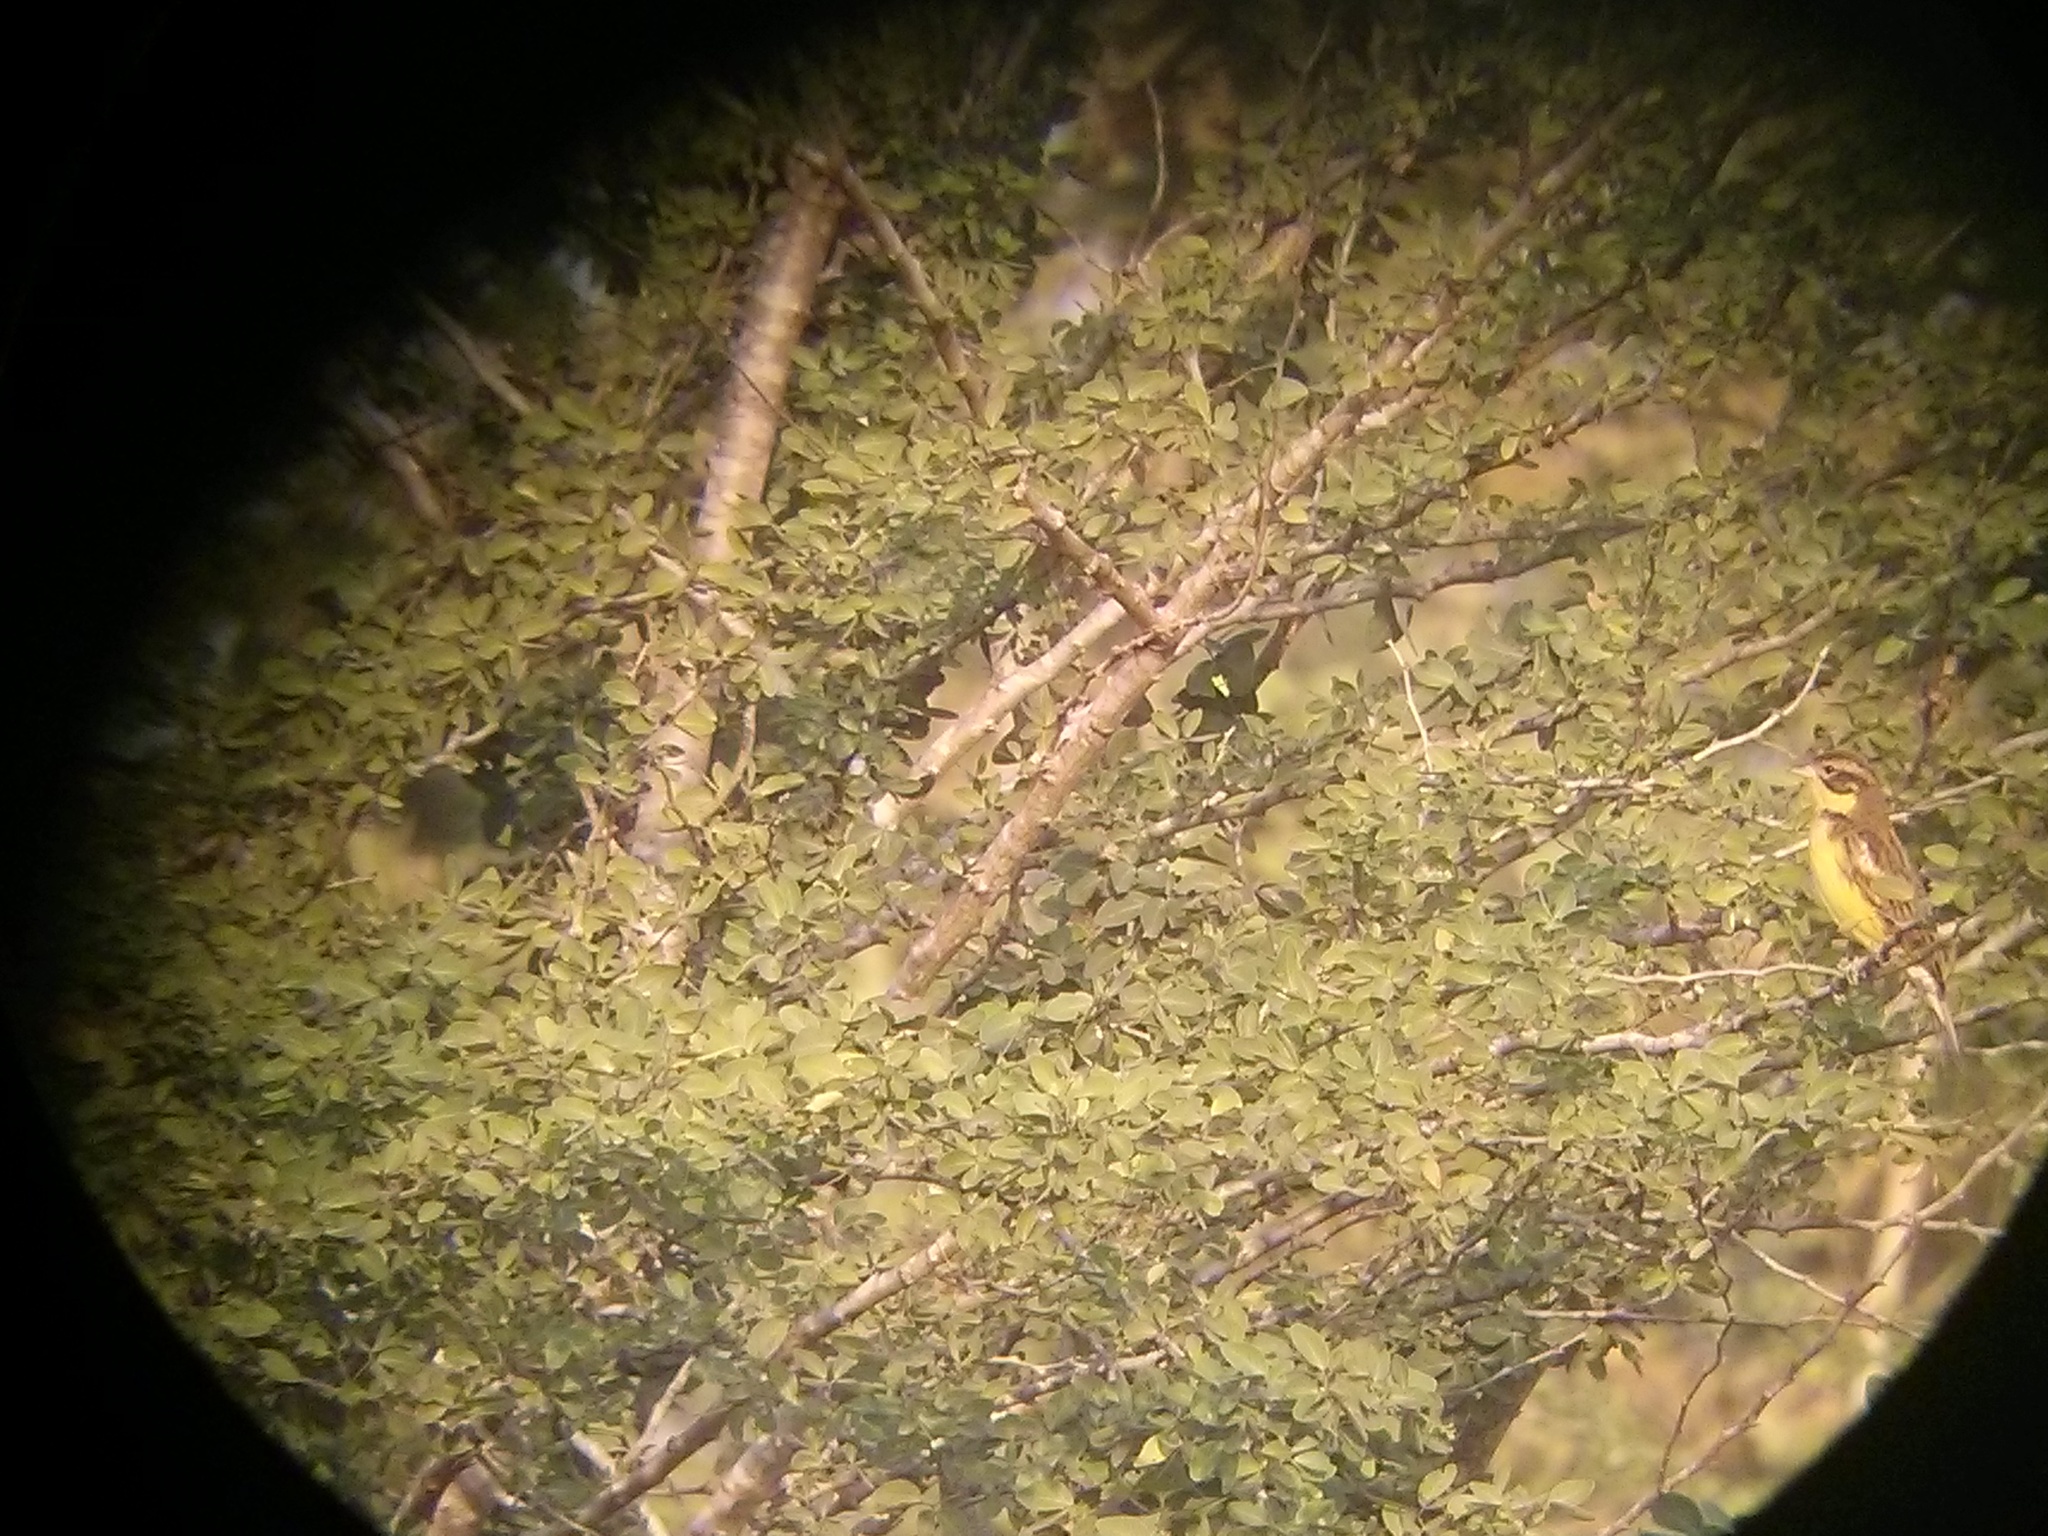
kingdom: Animalia
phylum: Chordata
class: Aves
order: Passeriformes
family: Emberizidae
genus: Emberiza
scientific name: Emberiza aureola
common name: Yellow-breasted bunting
